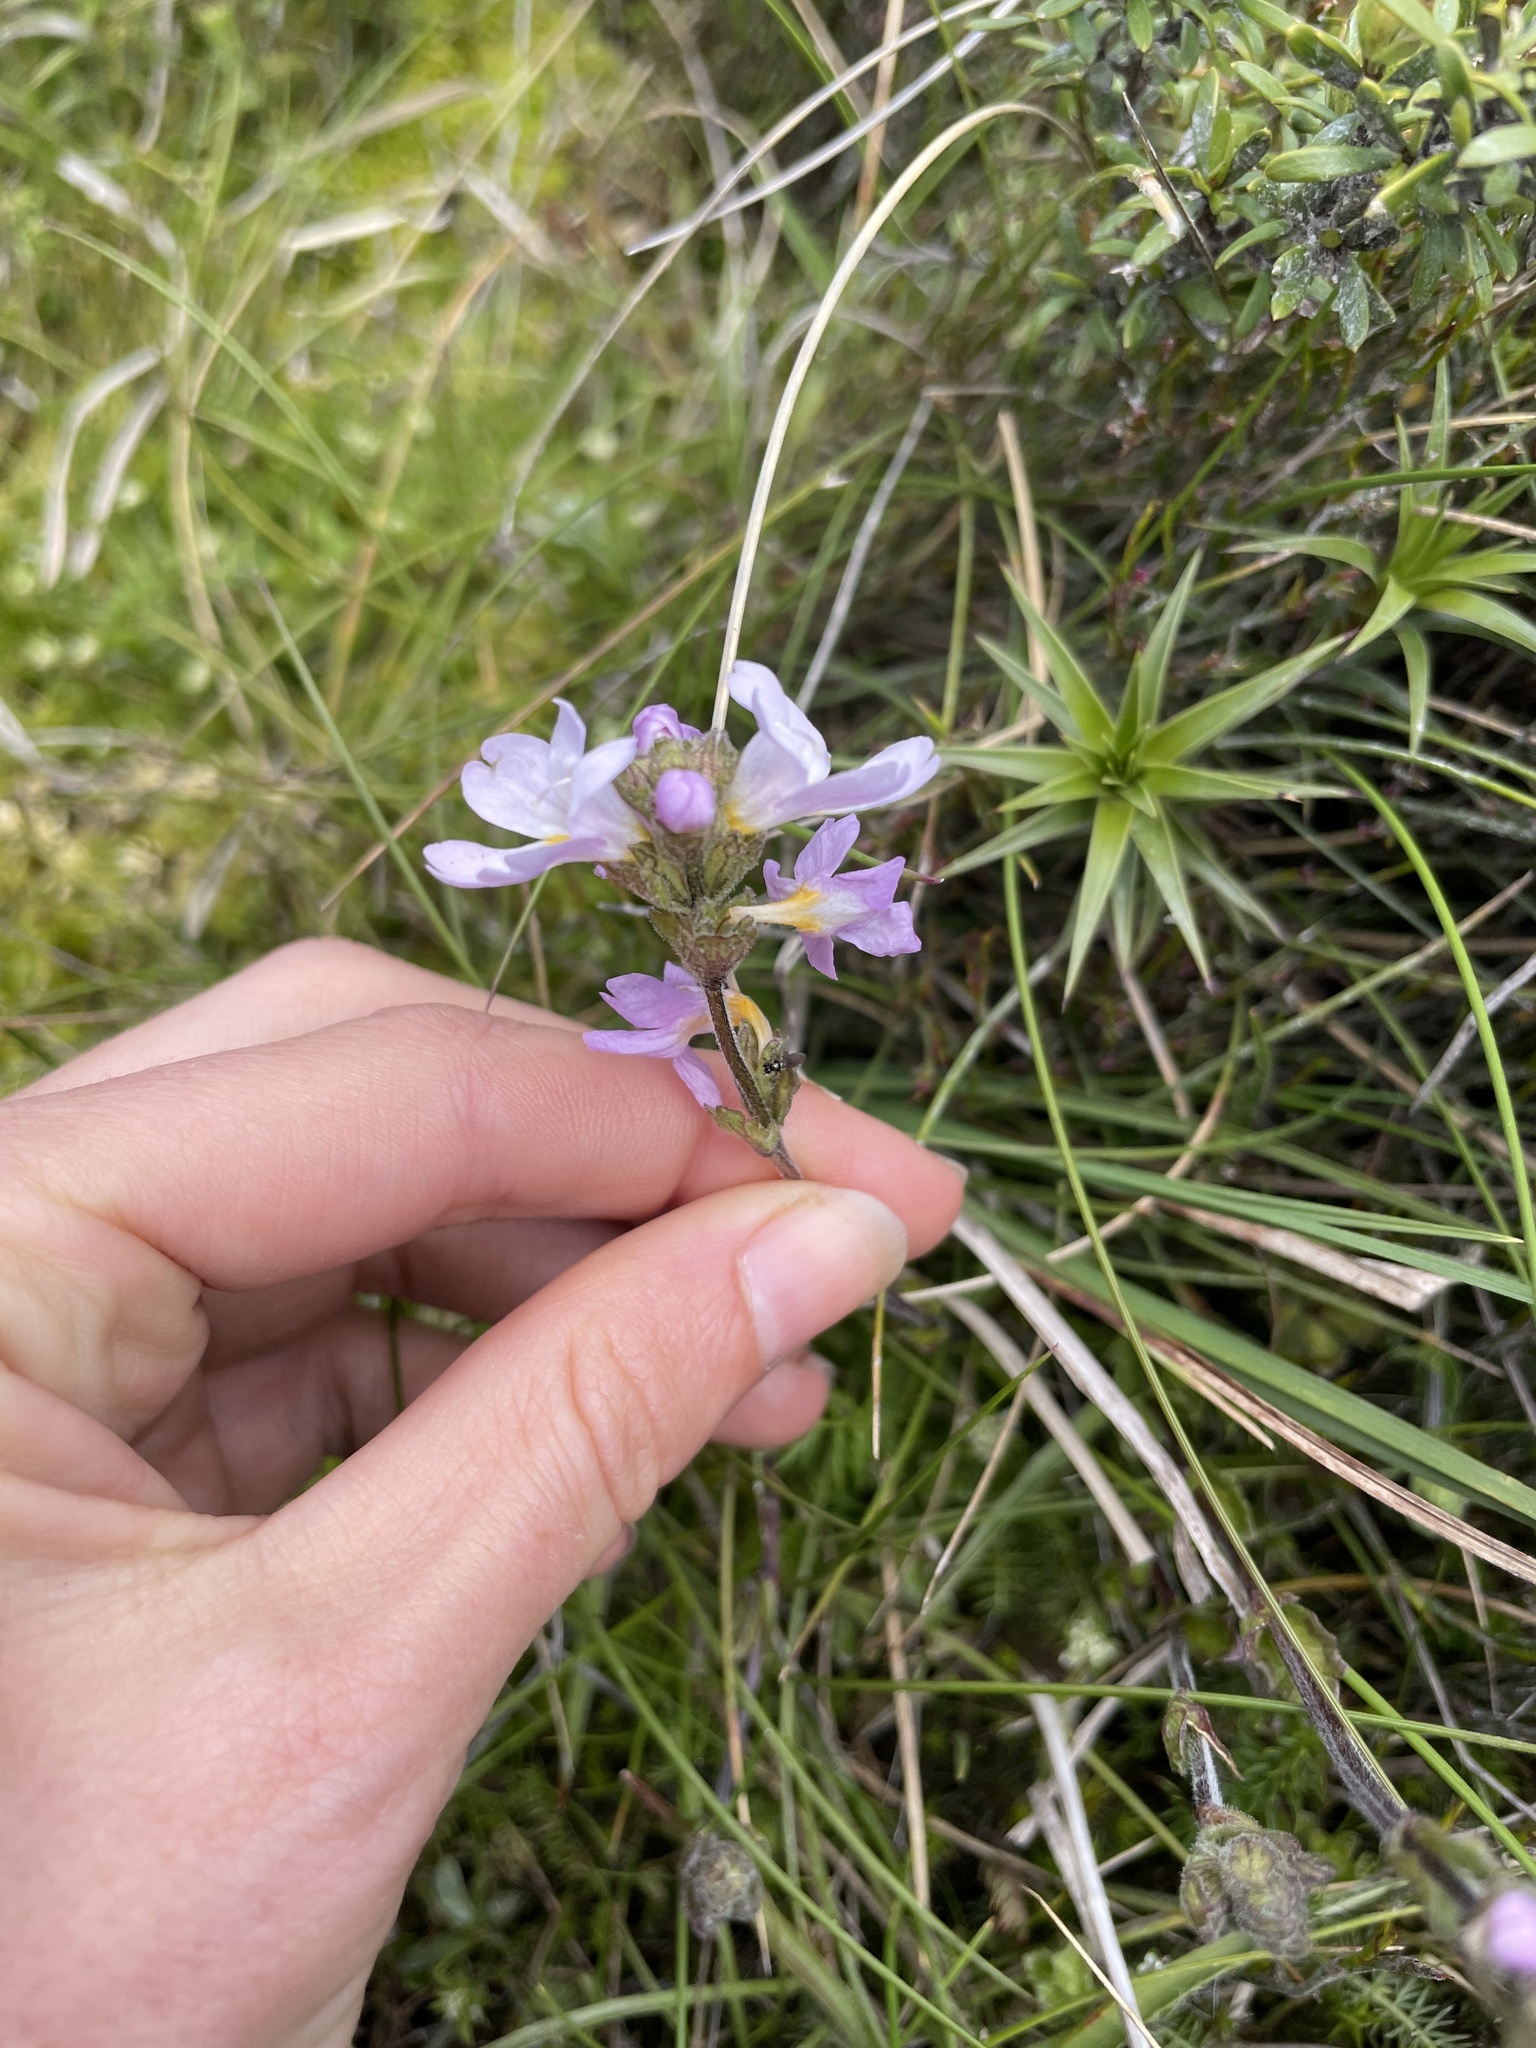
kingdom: Plantae
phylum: Tracheophyta
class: Magnoliopsida
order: Lamiales
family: Orobanchaceae
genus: Euphrasia
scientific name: Euphrasia collina
